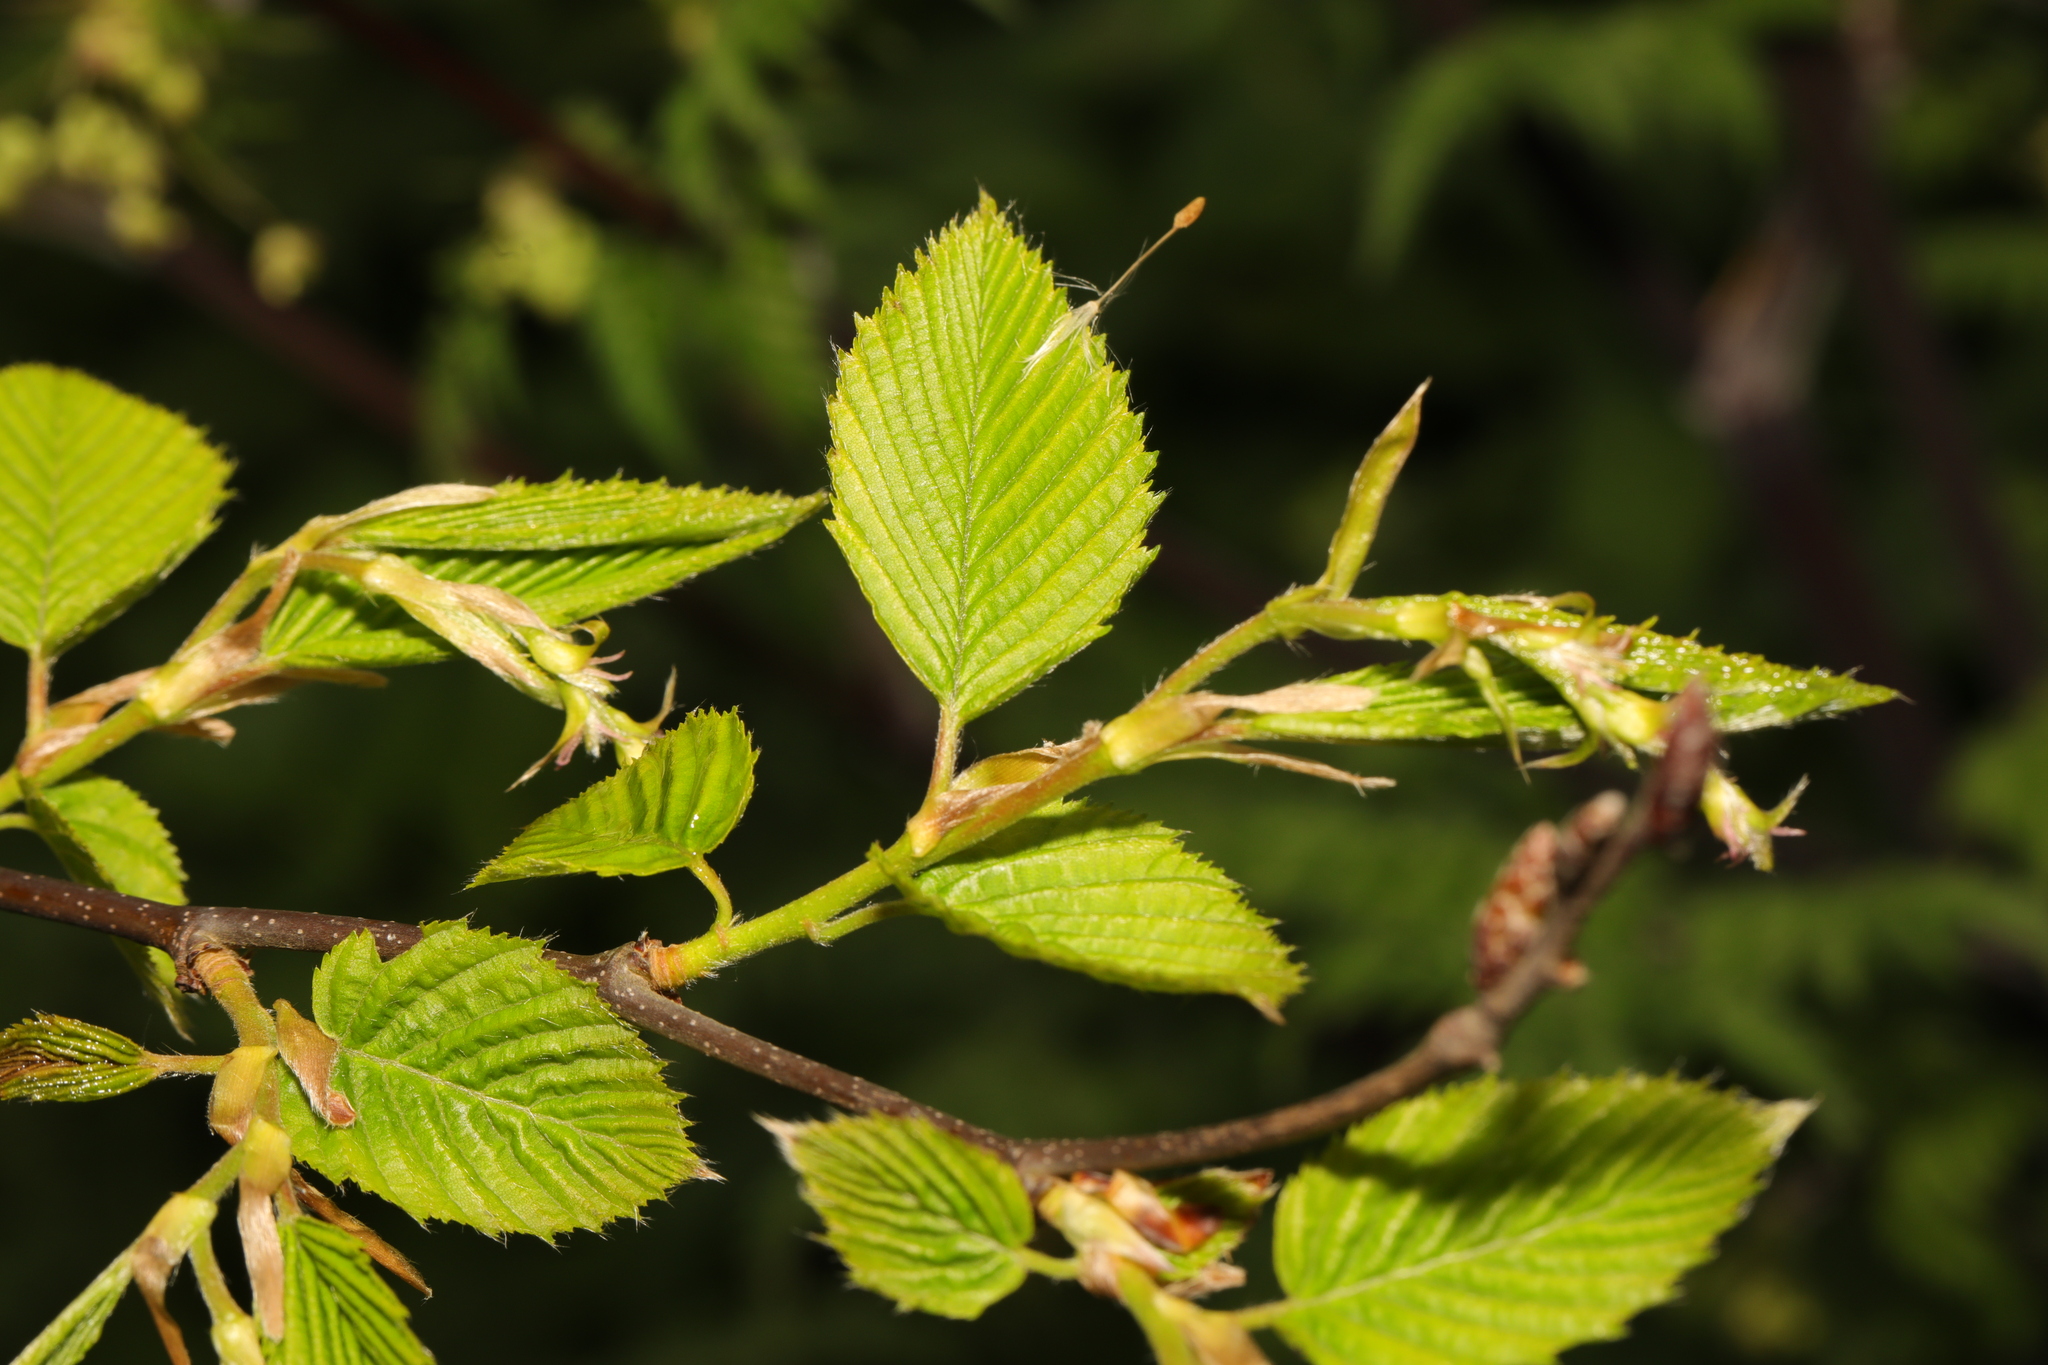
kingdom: Plantae
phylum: Tracheophyta
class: Magnoliopsida
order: Fagales
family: Betulaceae
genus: Carpinus
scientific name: Carpinus betulus
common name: Hornbeam
